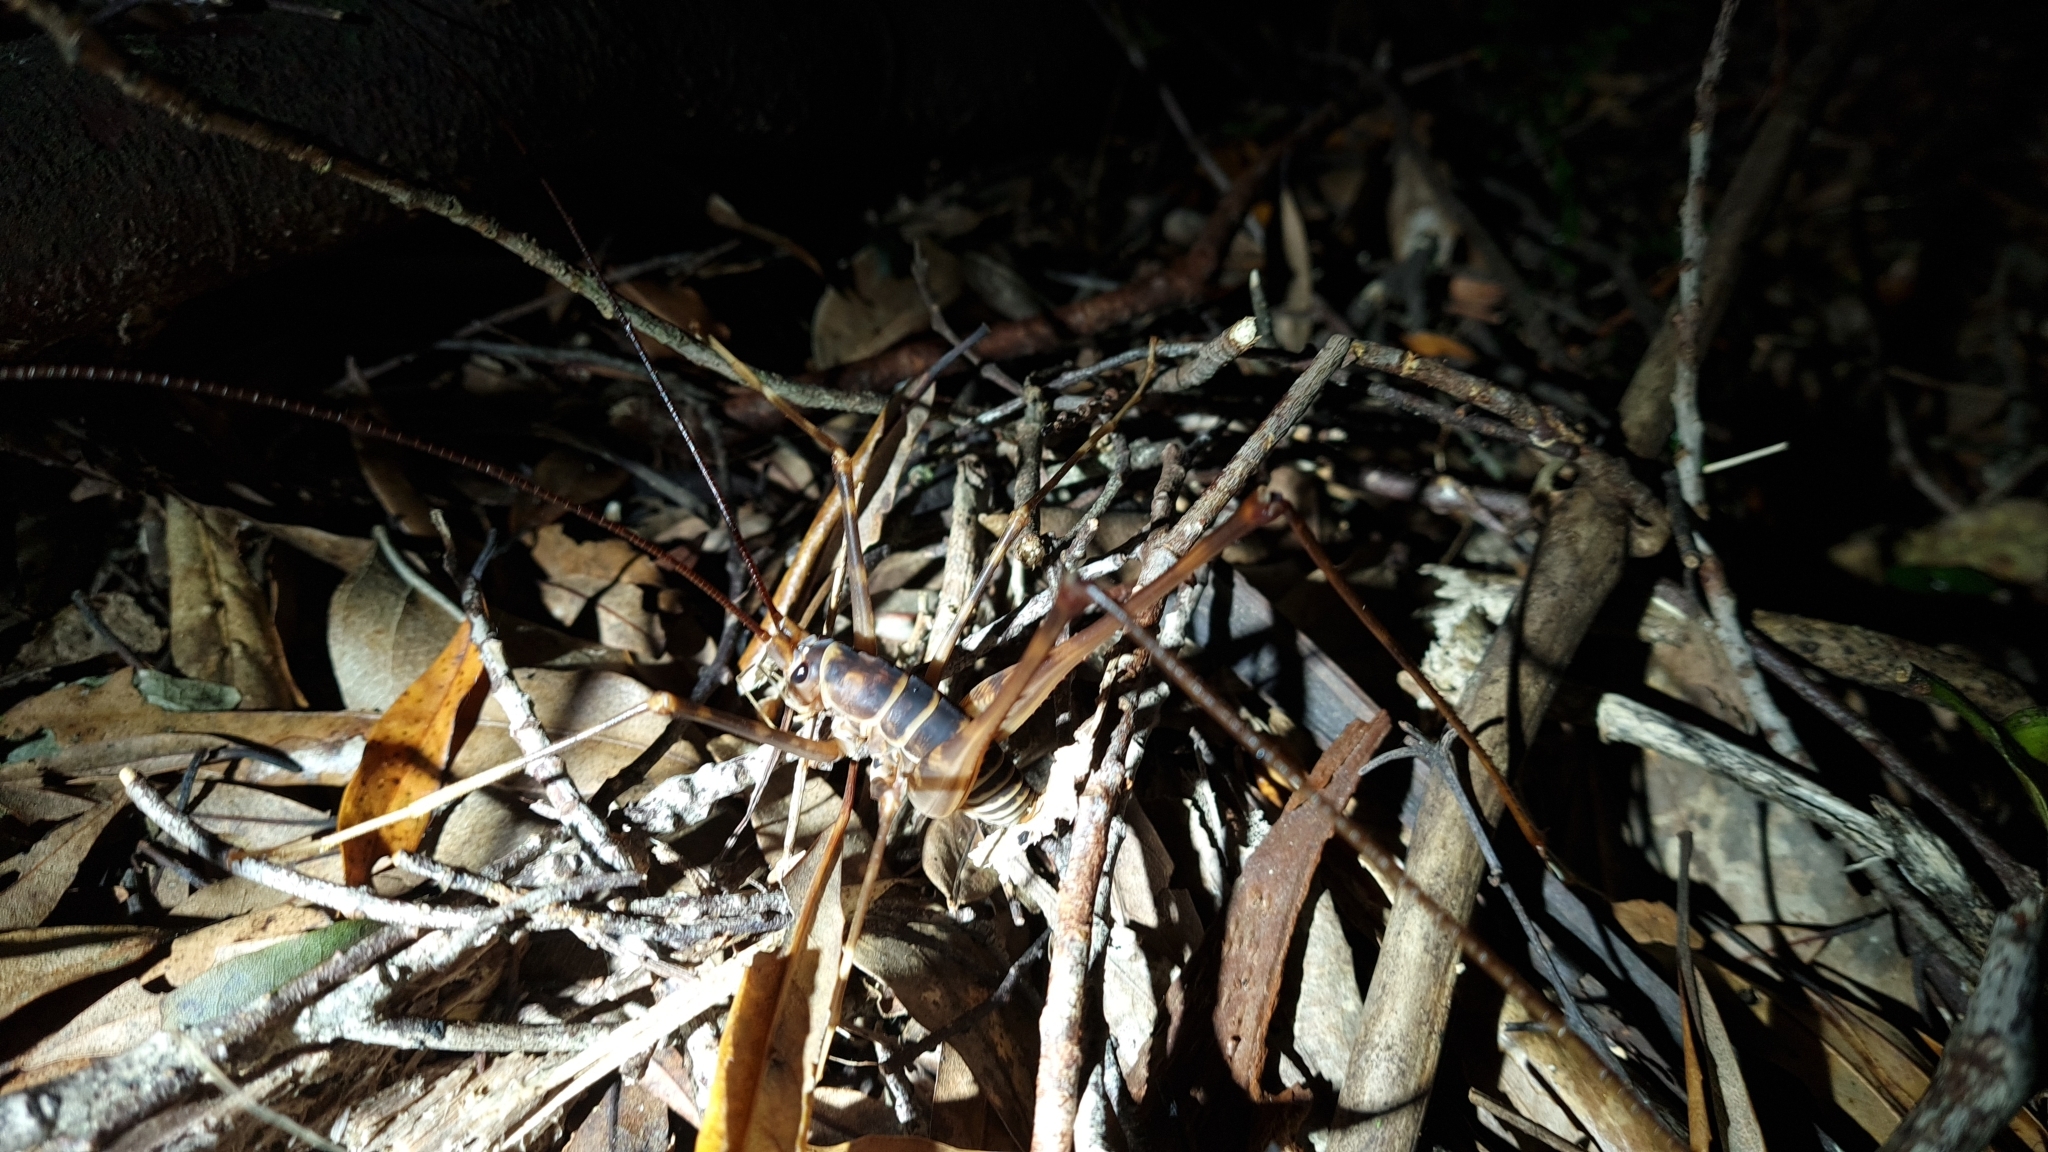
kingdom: Animalia
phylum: Arthropoda
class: Insecta
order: Orthoptera
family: Rhaphidophoridae
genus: Pachyrhamma
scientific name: Pachyrhamma acanthocera
